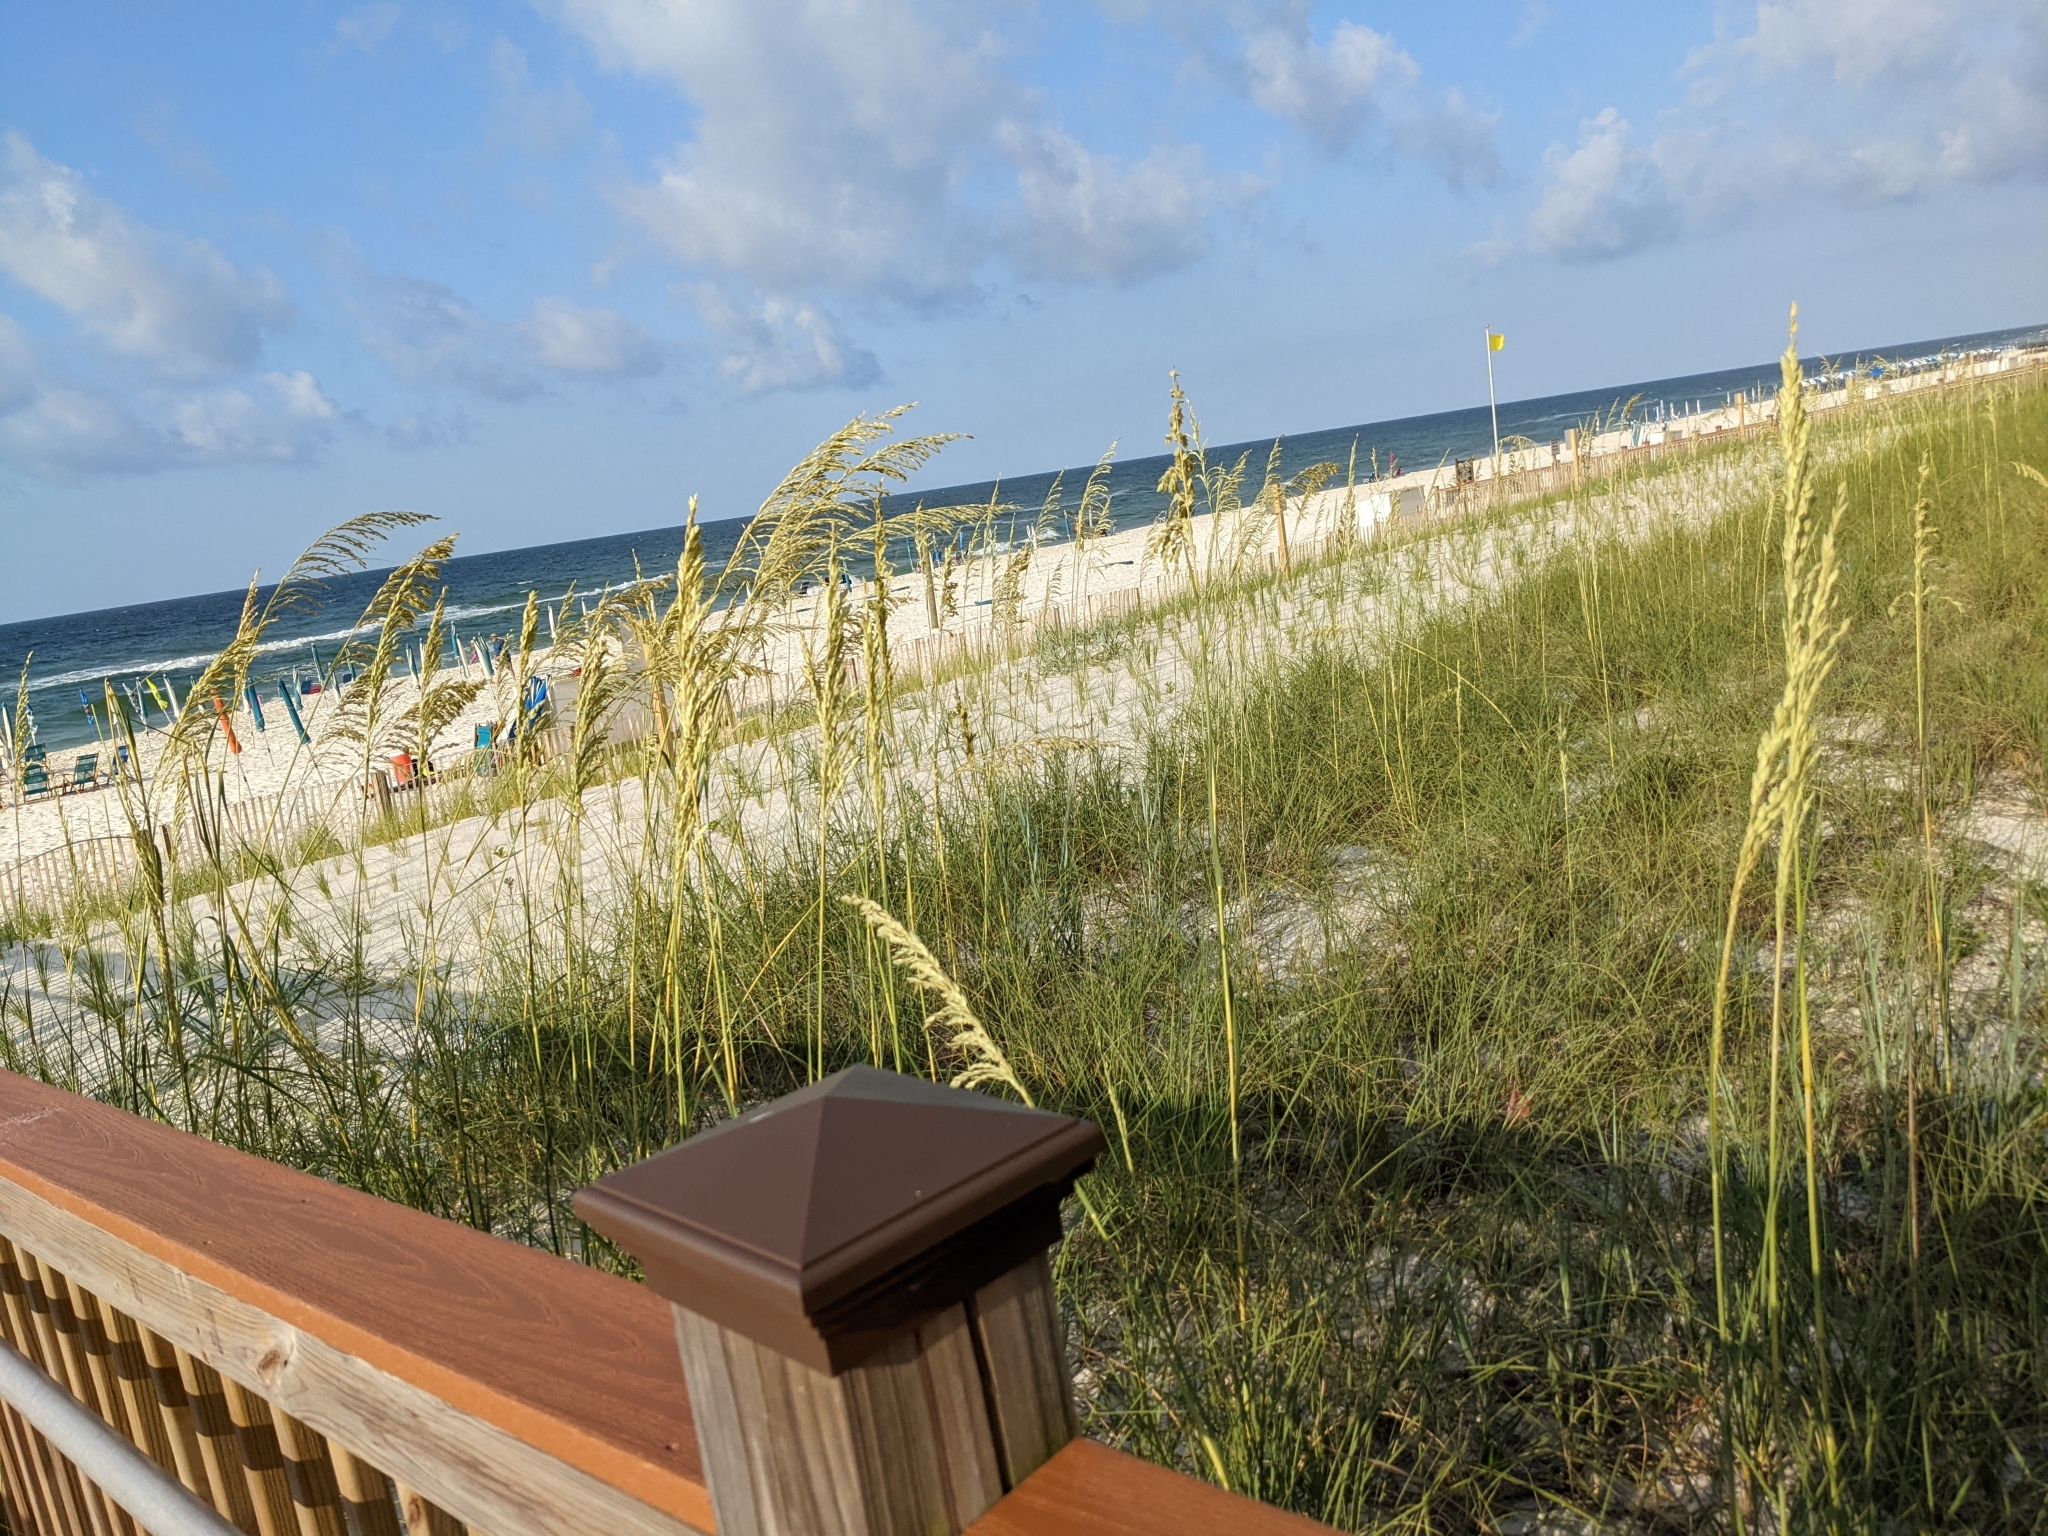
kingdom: Plantae
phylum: Tracheophyta
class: Liliopsida
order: Poales
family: Poaceae
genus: Uniola
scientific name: Uniola paniculata
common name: Seaside-oats
